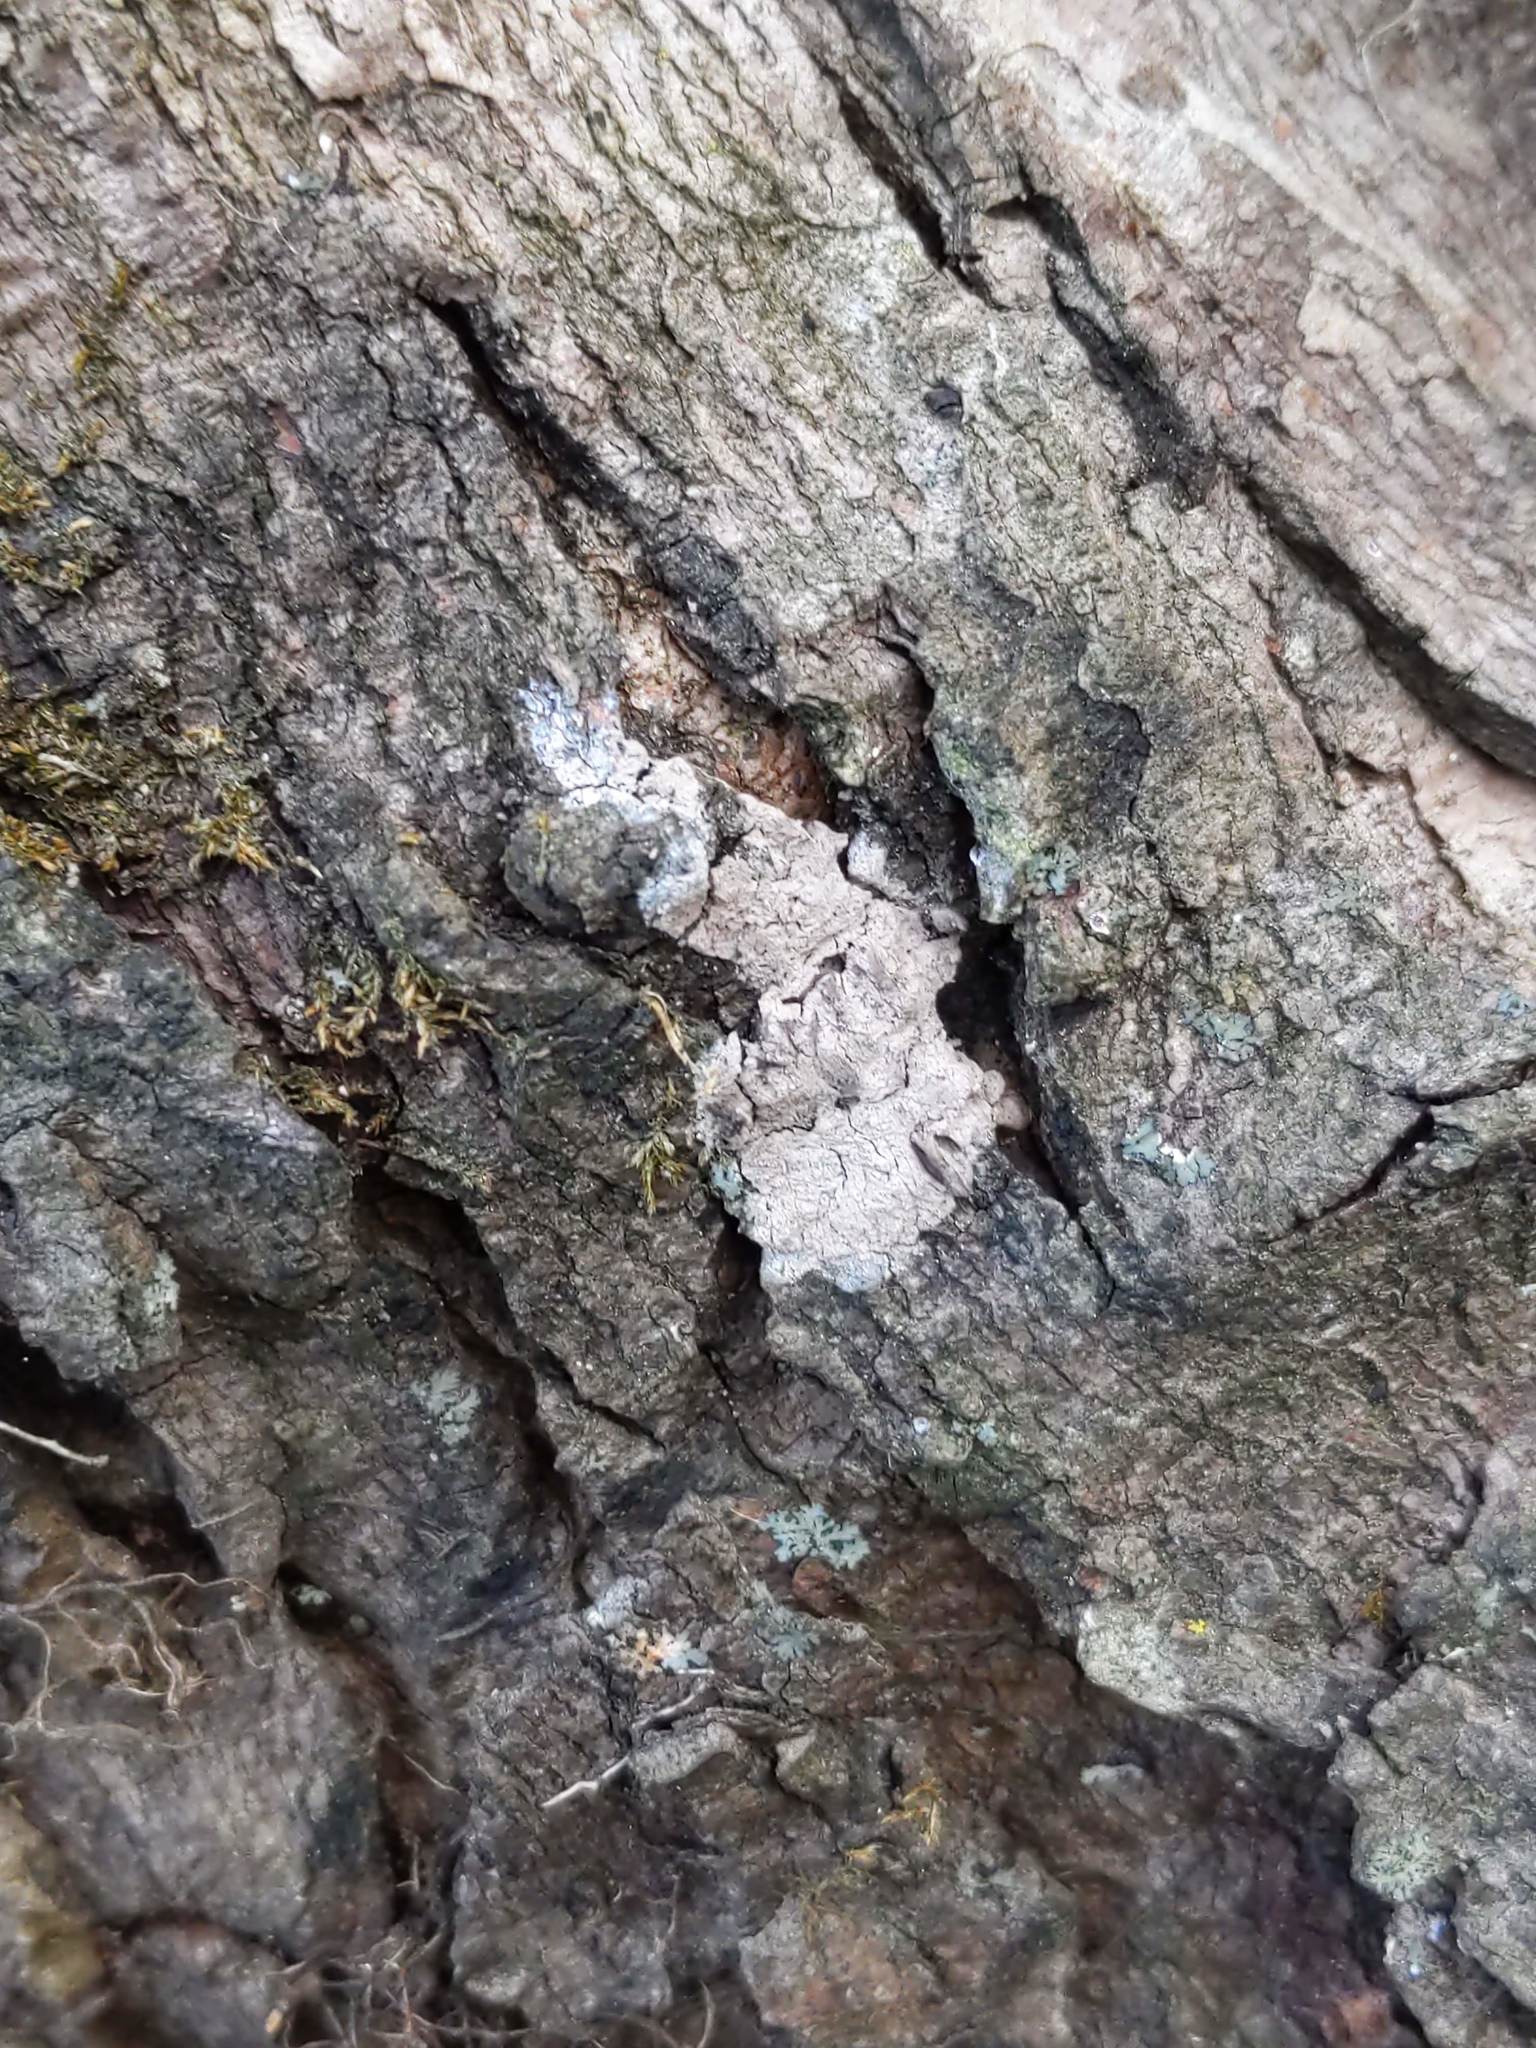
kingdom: Animalia
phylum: Arthropoda
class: Insecta
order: Hemiptera
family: Fulgoridae
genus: Lycorma
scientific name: Lycorma delicatula
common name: Spotted lanternfly
